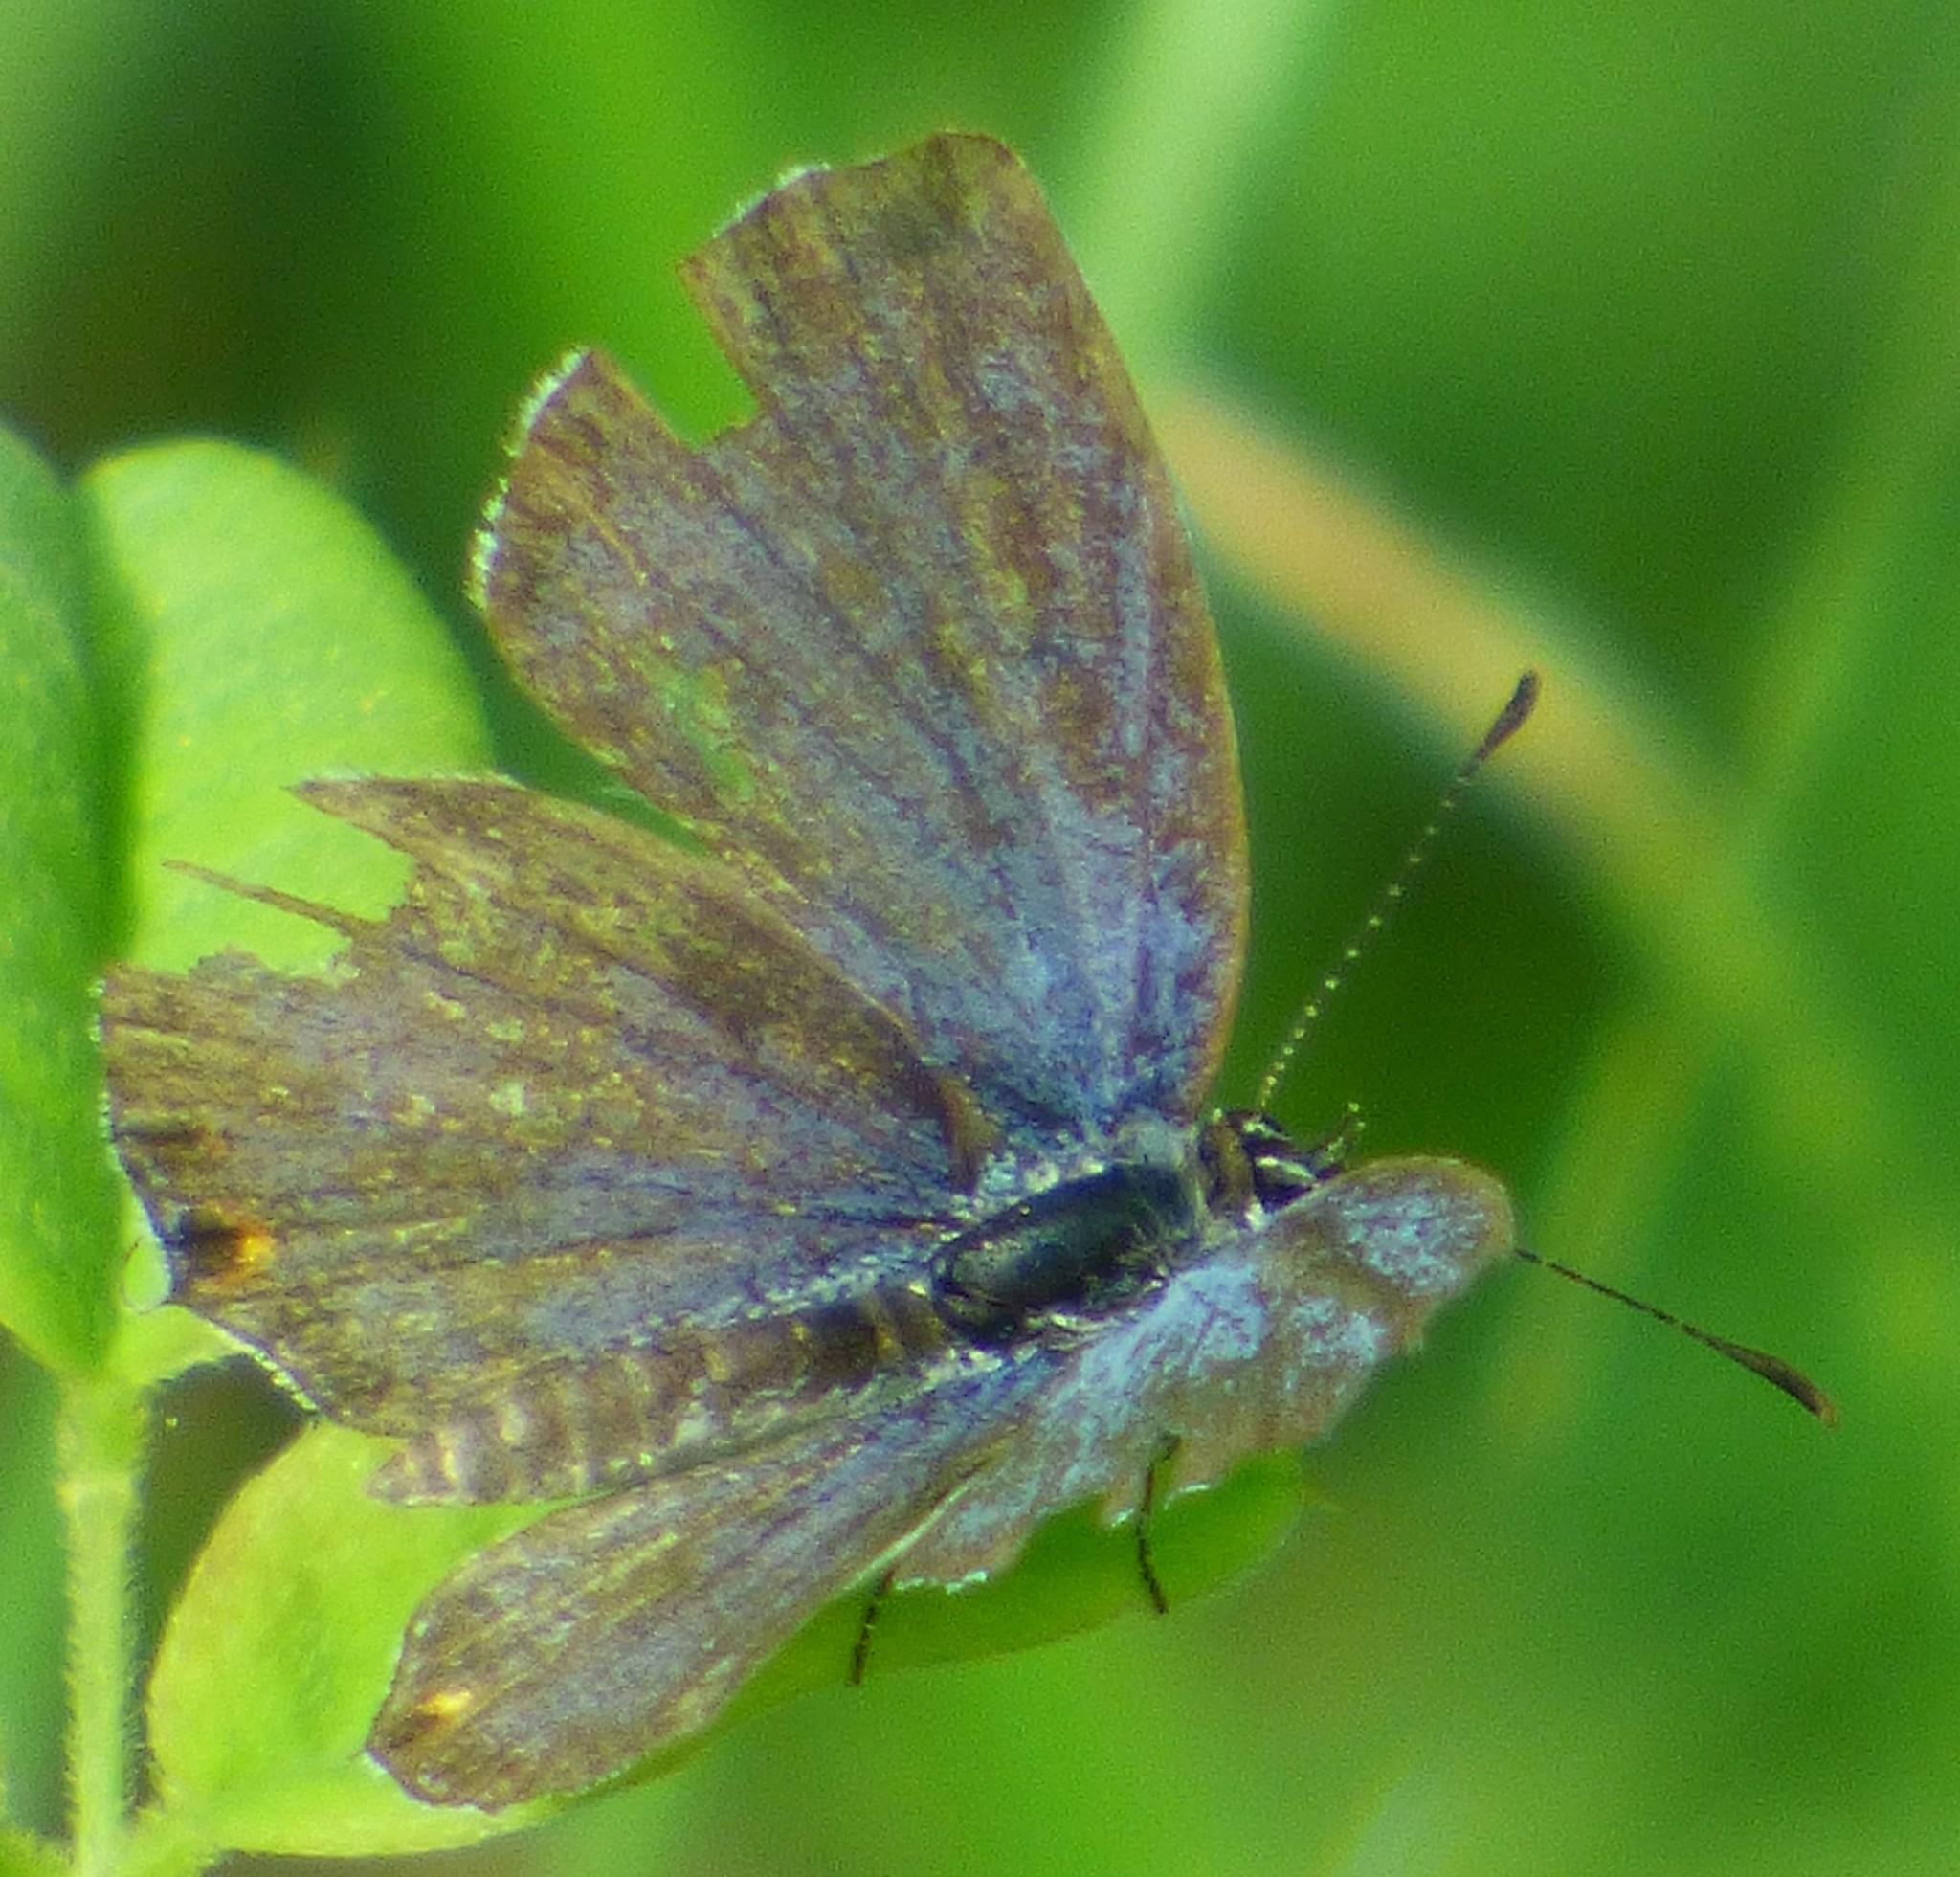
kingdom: Animalia
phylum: Arthropoda
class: Insecta
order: Lepidoptera
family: Lycaenidae
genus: Elkalyce
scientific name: Elkalyce comyntas
